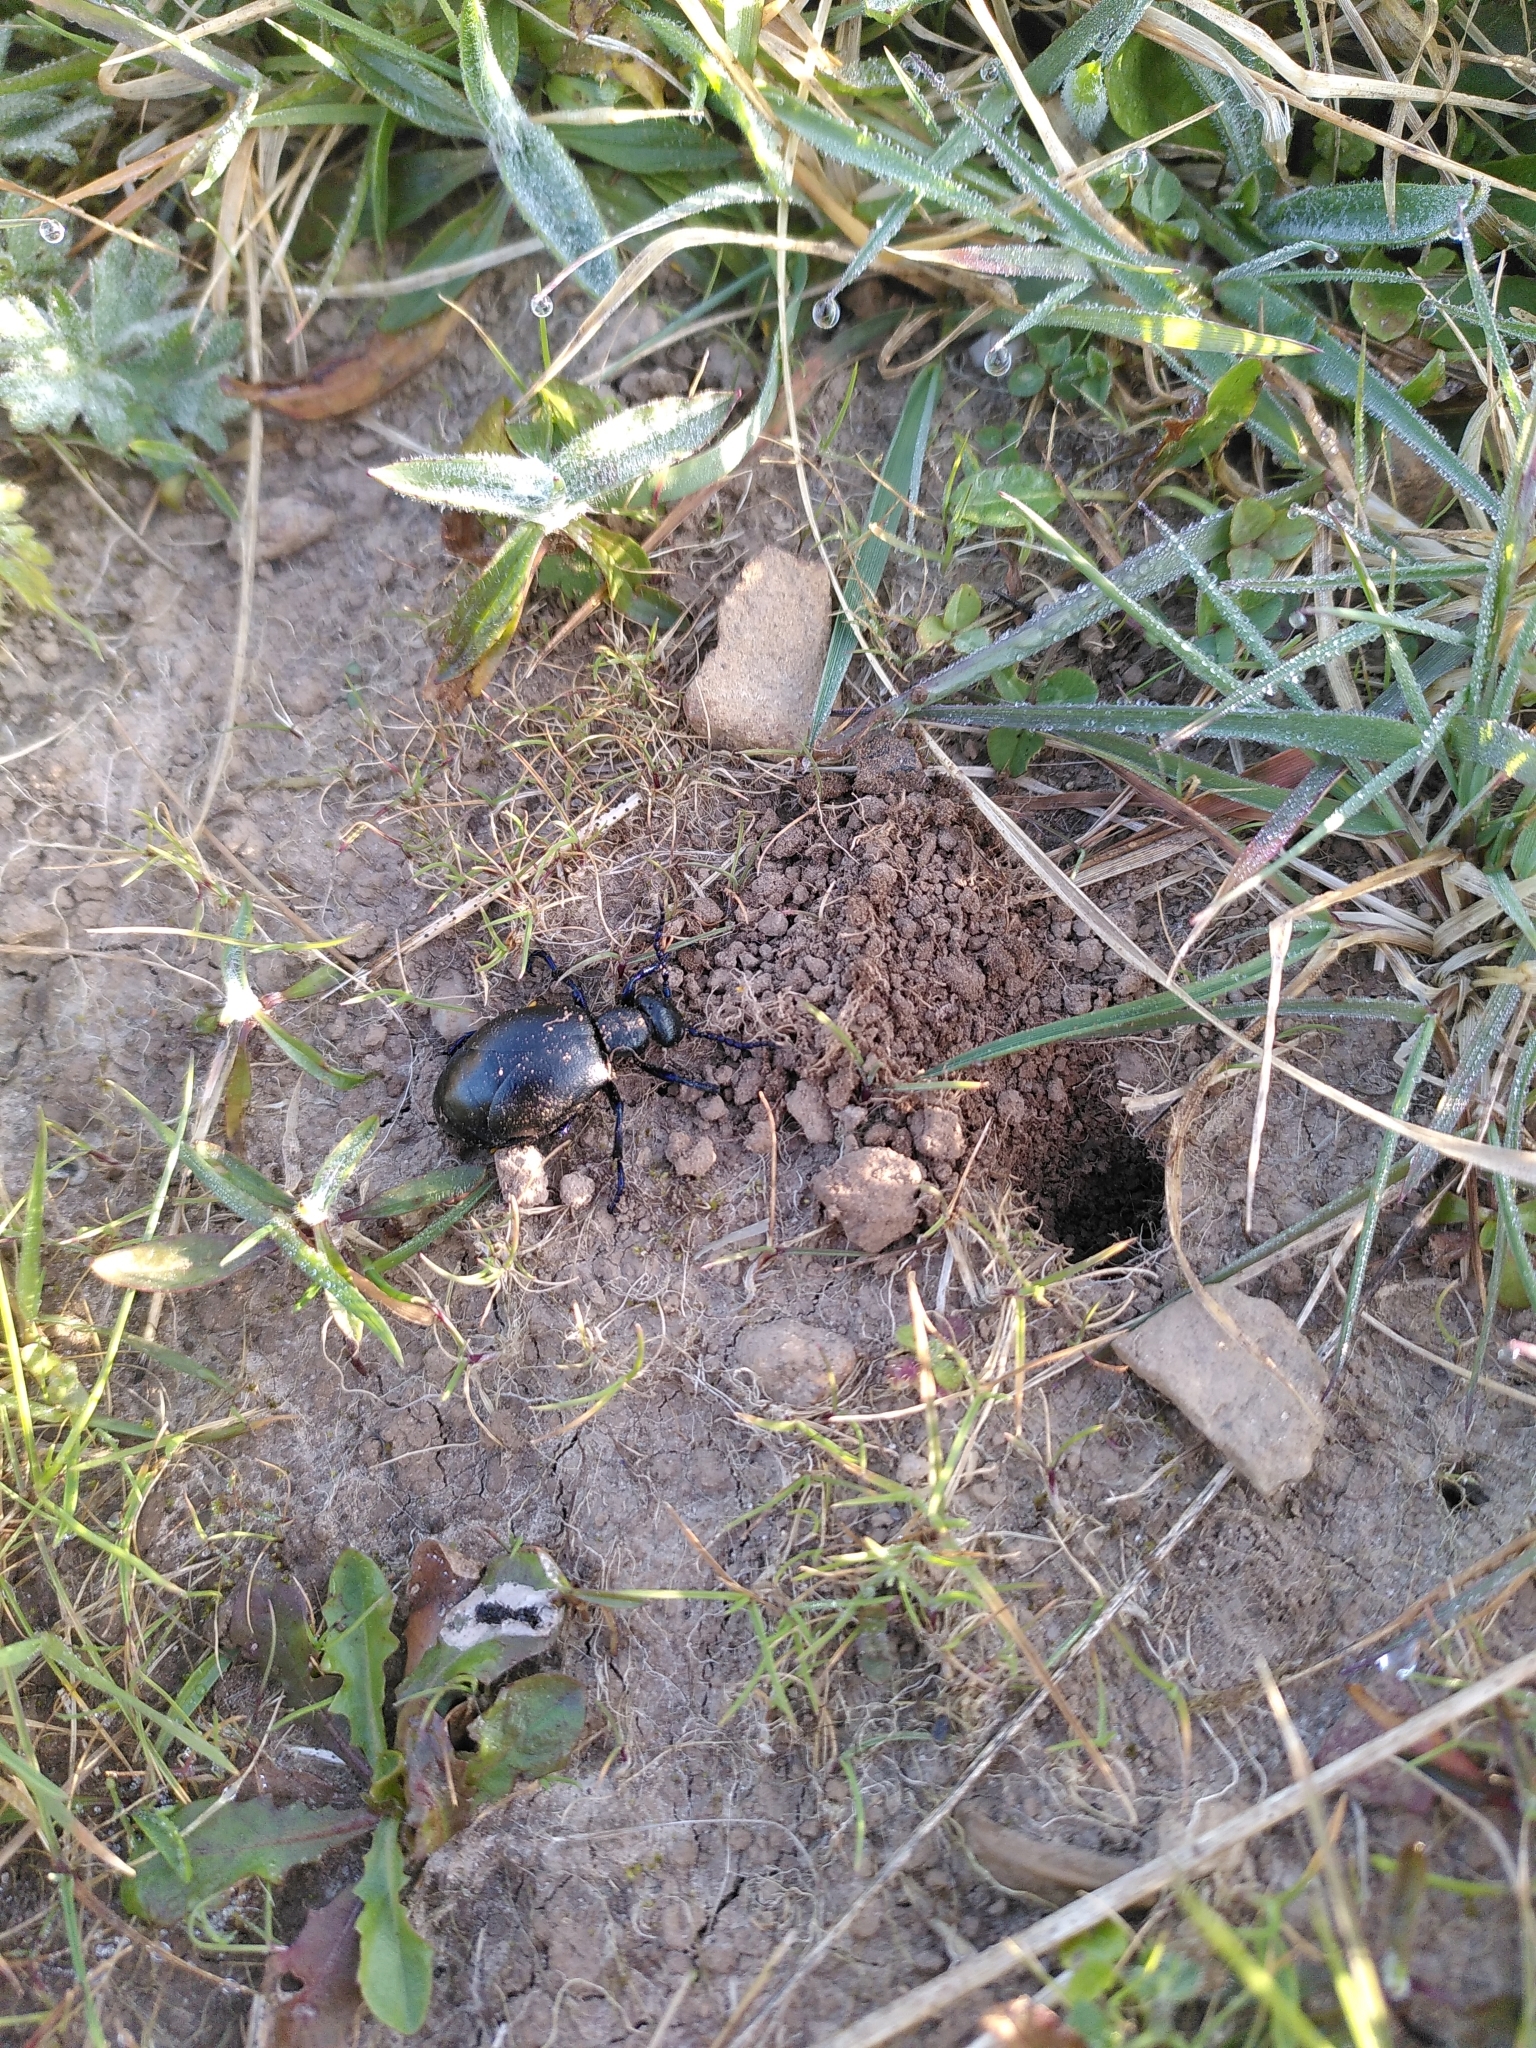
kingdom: Animalia
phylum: Arthropoda
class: Insecta
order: Coleoptera
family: Meloidae
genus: Meloe
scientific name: Meloe proscarabaeus
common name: Black oil-beetle
